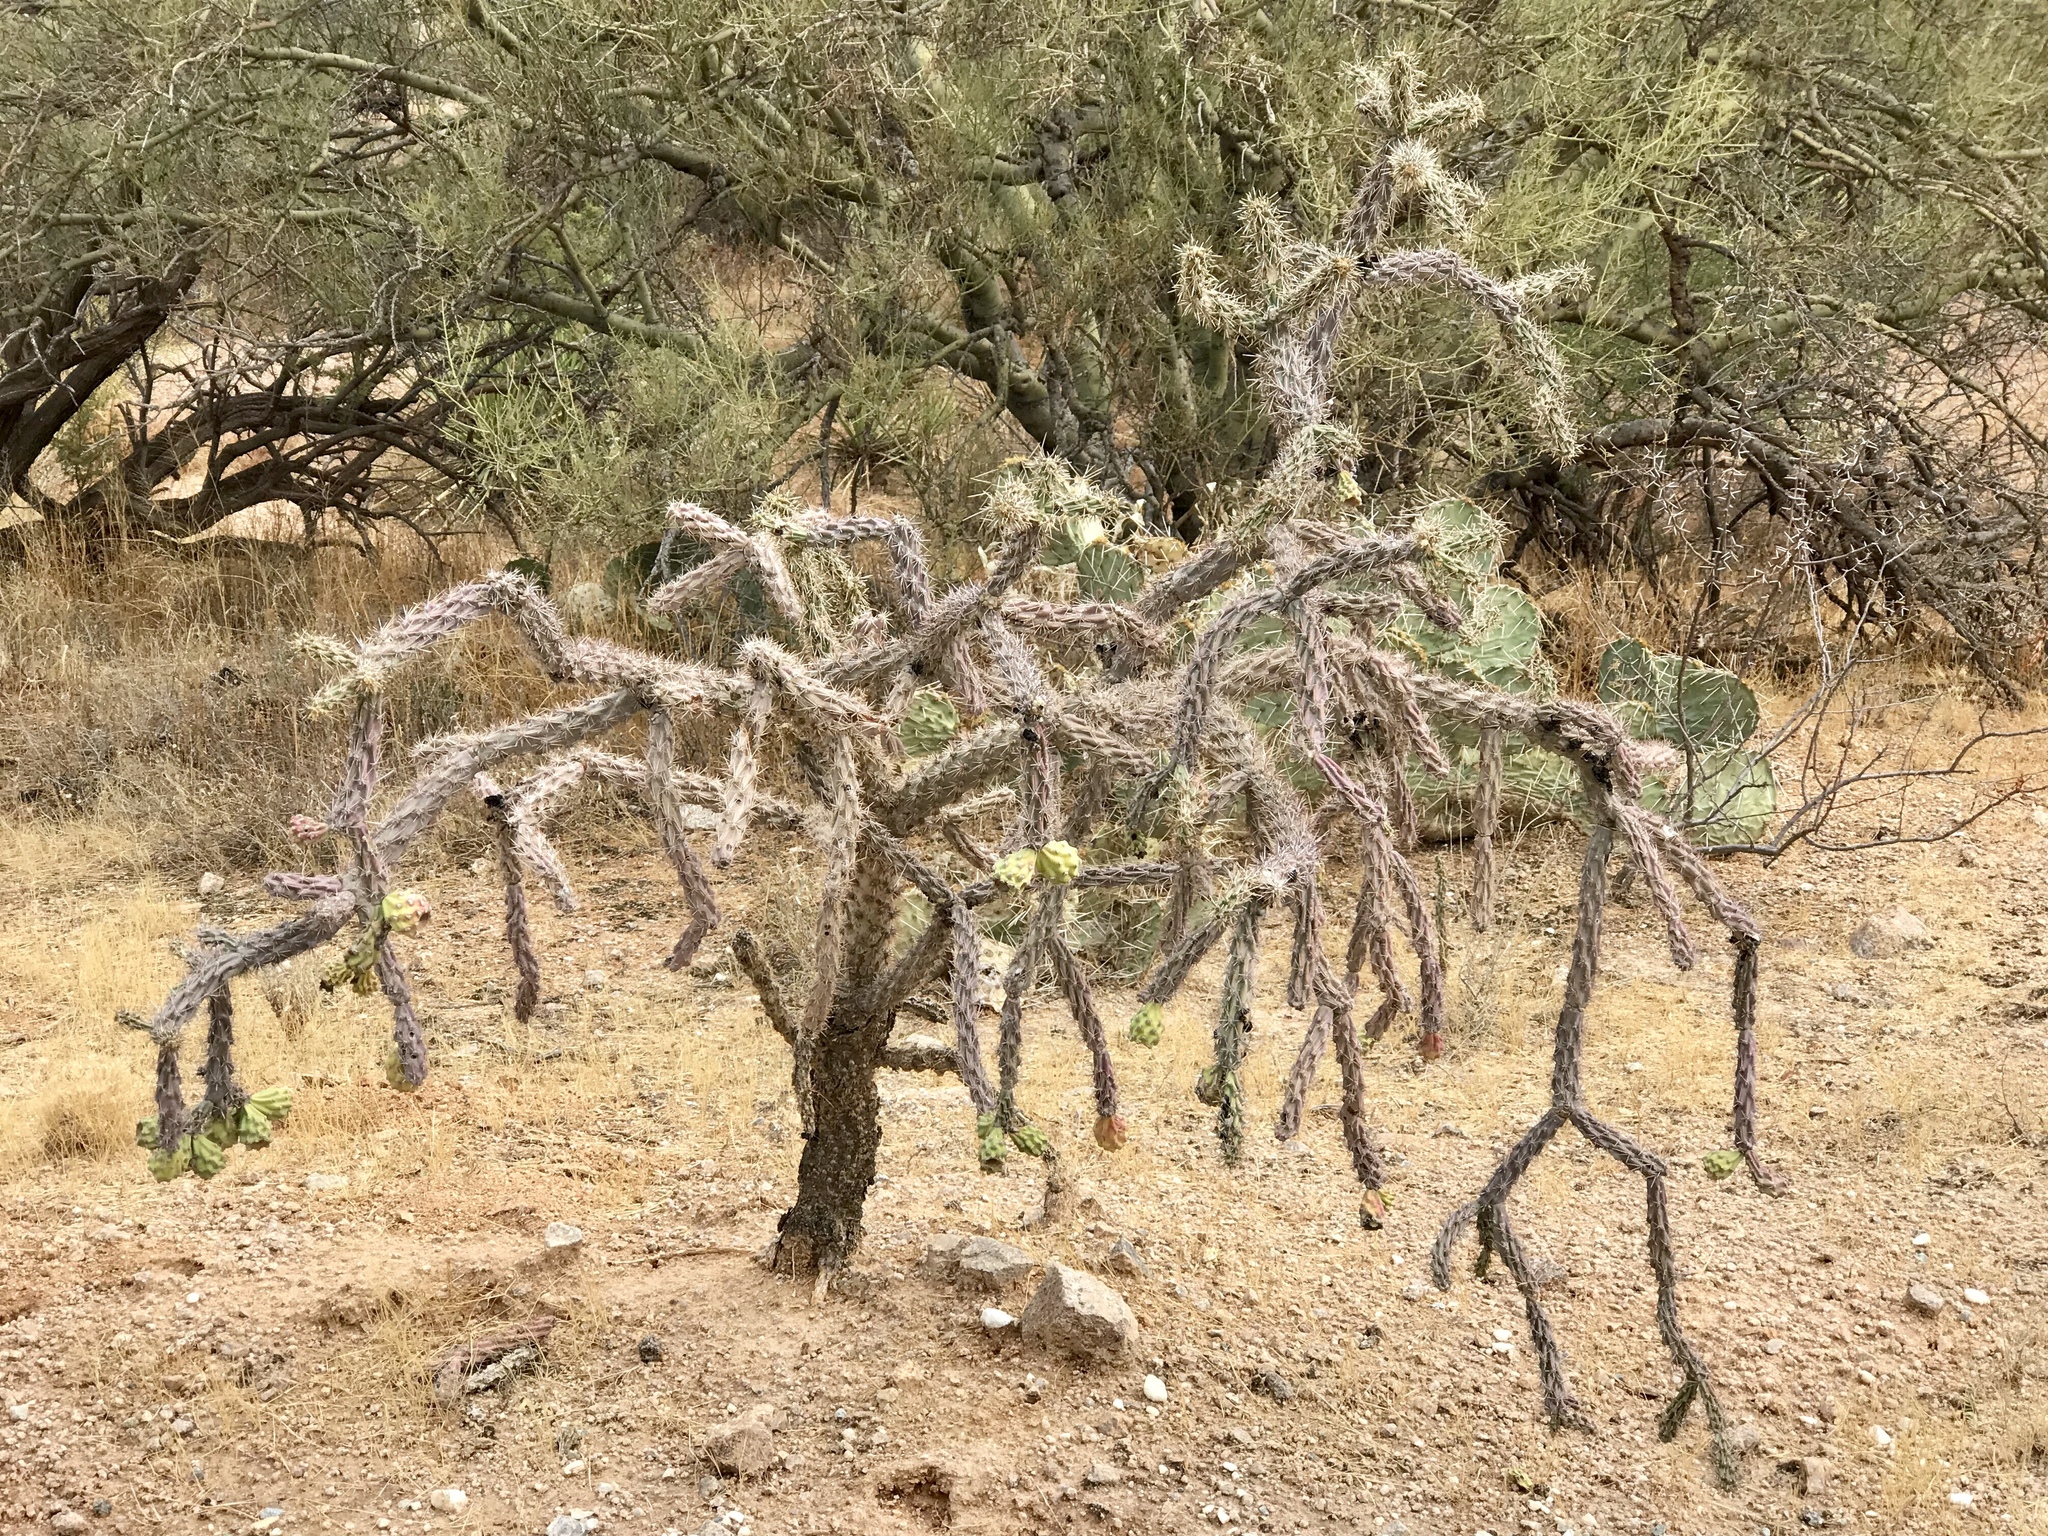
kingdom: Plantae
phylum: Tracheophyta
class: Magnoliopsida
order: Caryophyllales
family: Cactaceae
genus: Cylindropuntia
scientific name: Cylindropuntia imbricata
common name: Candelabrum cactus
